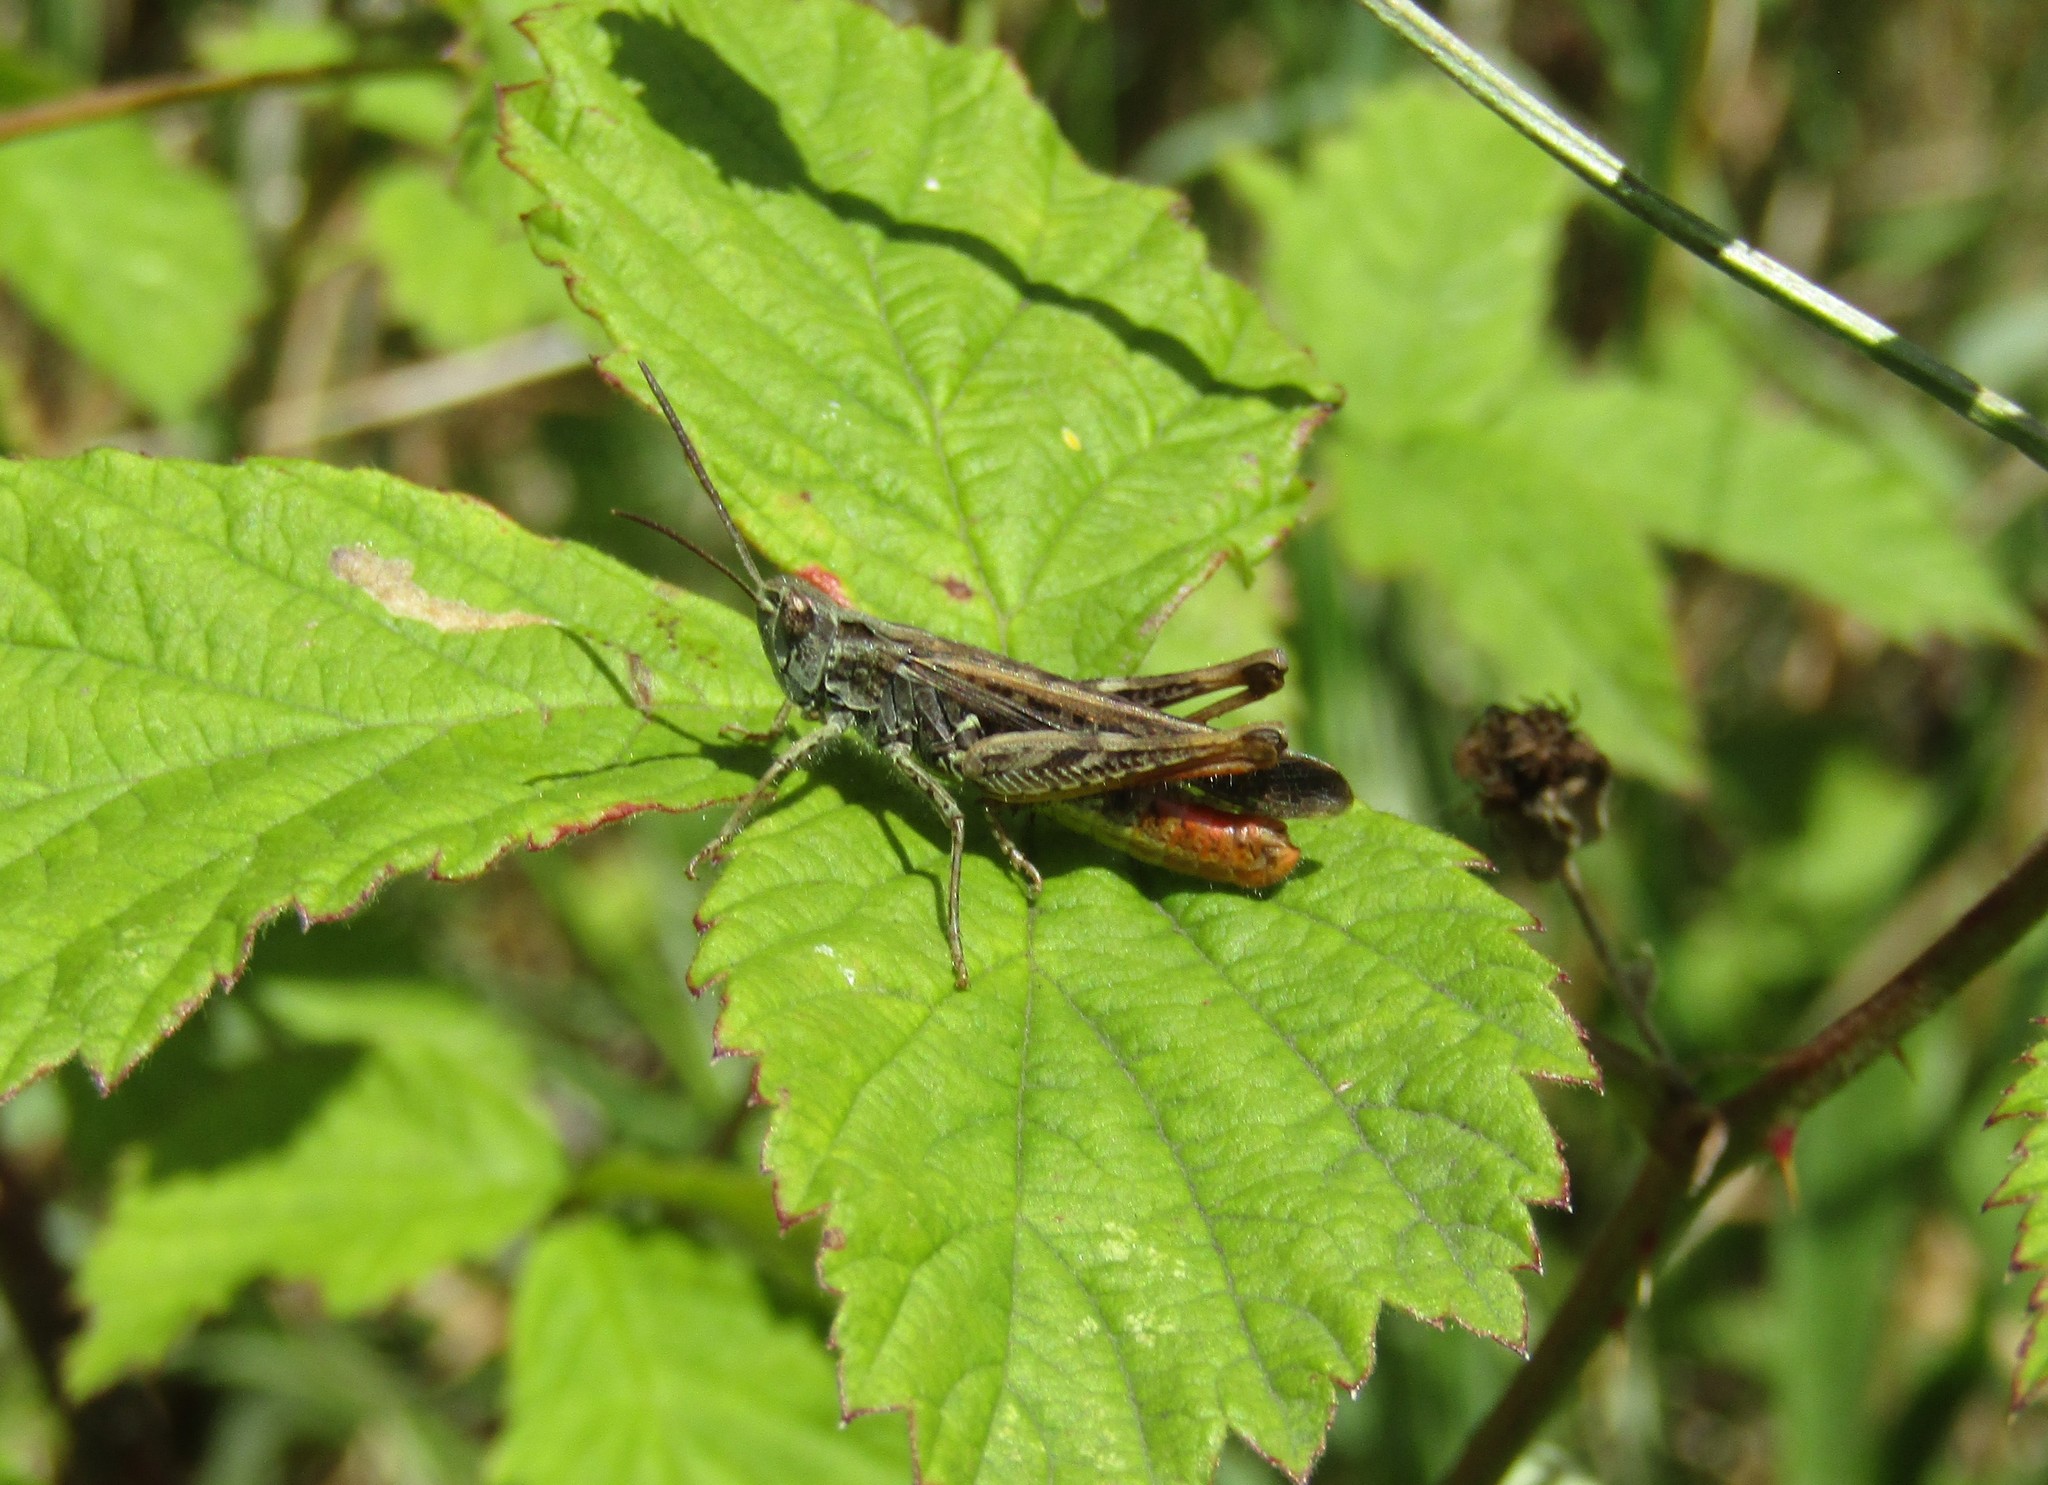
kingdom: Animalia
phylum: Arthropoda
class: Insecta
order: Orthoptera
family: Acrididae
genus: Chorthippus
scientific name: Chorthippus brunneus
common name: Field grasshopper
